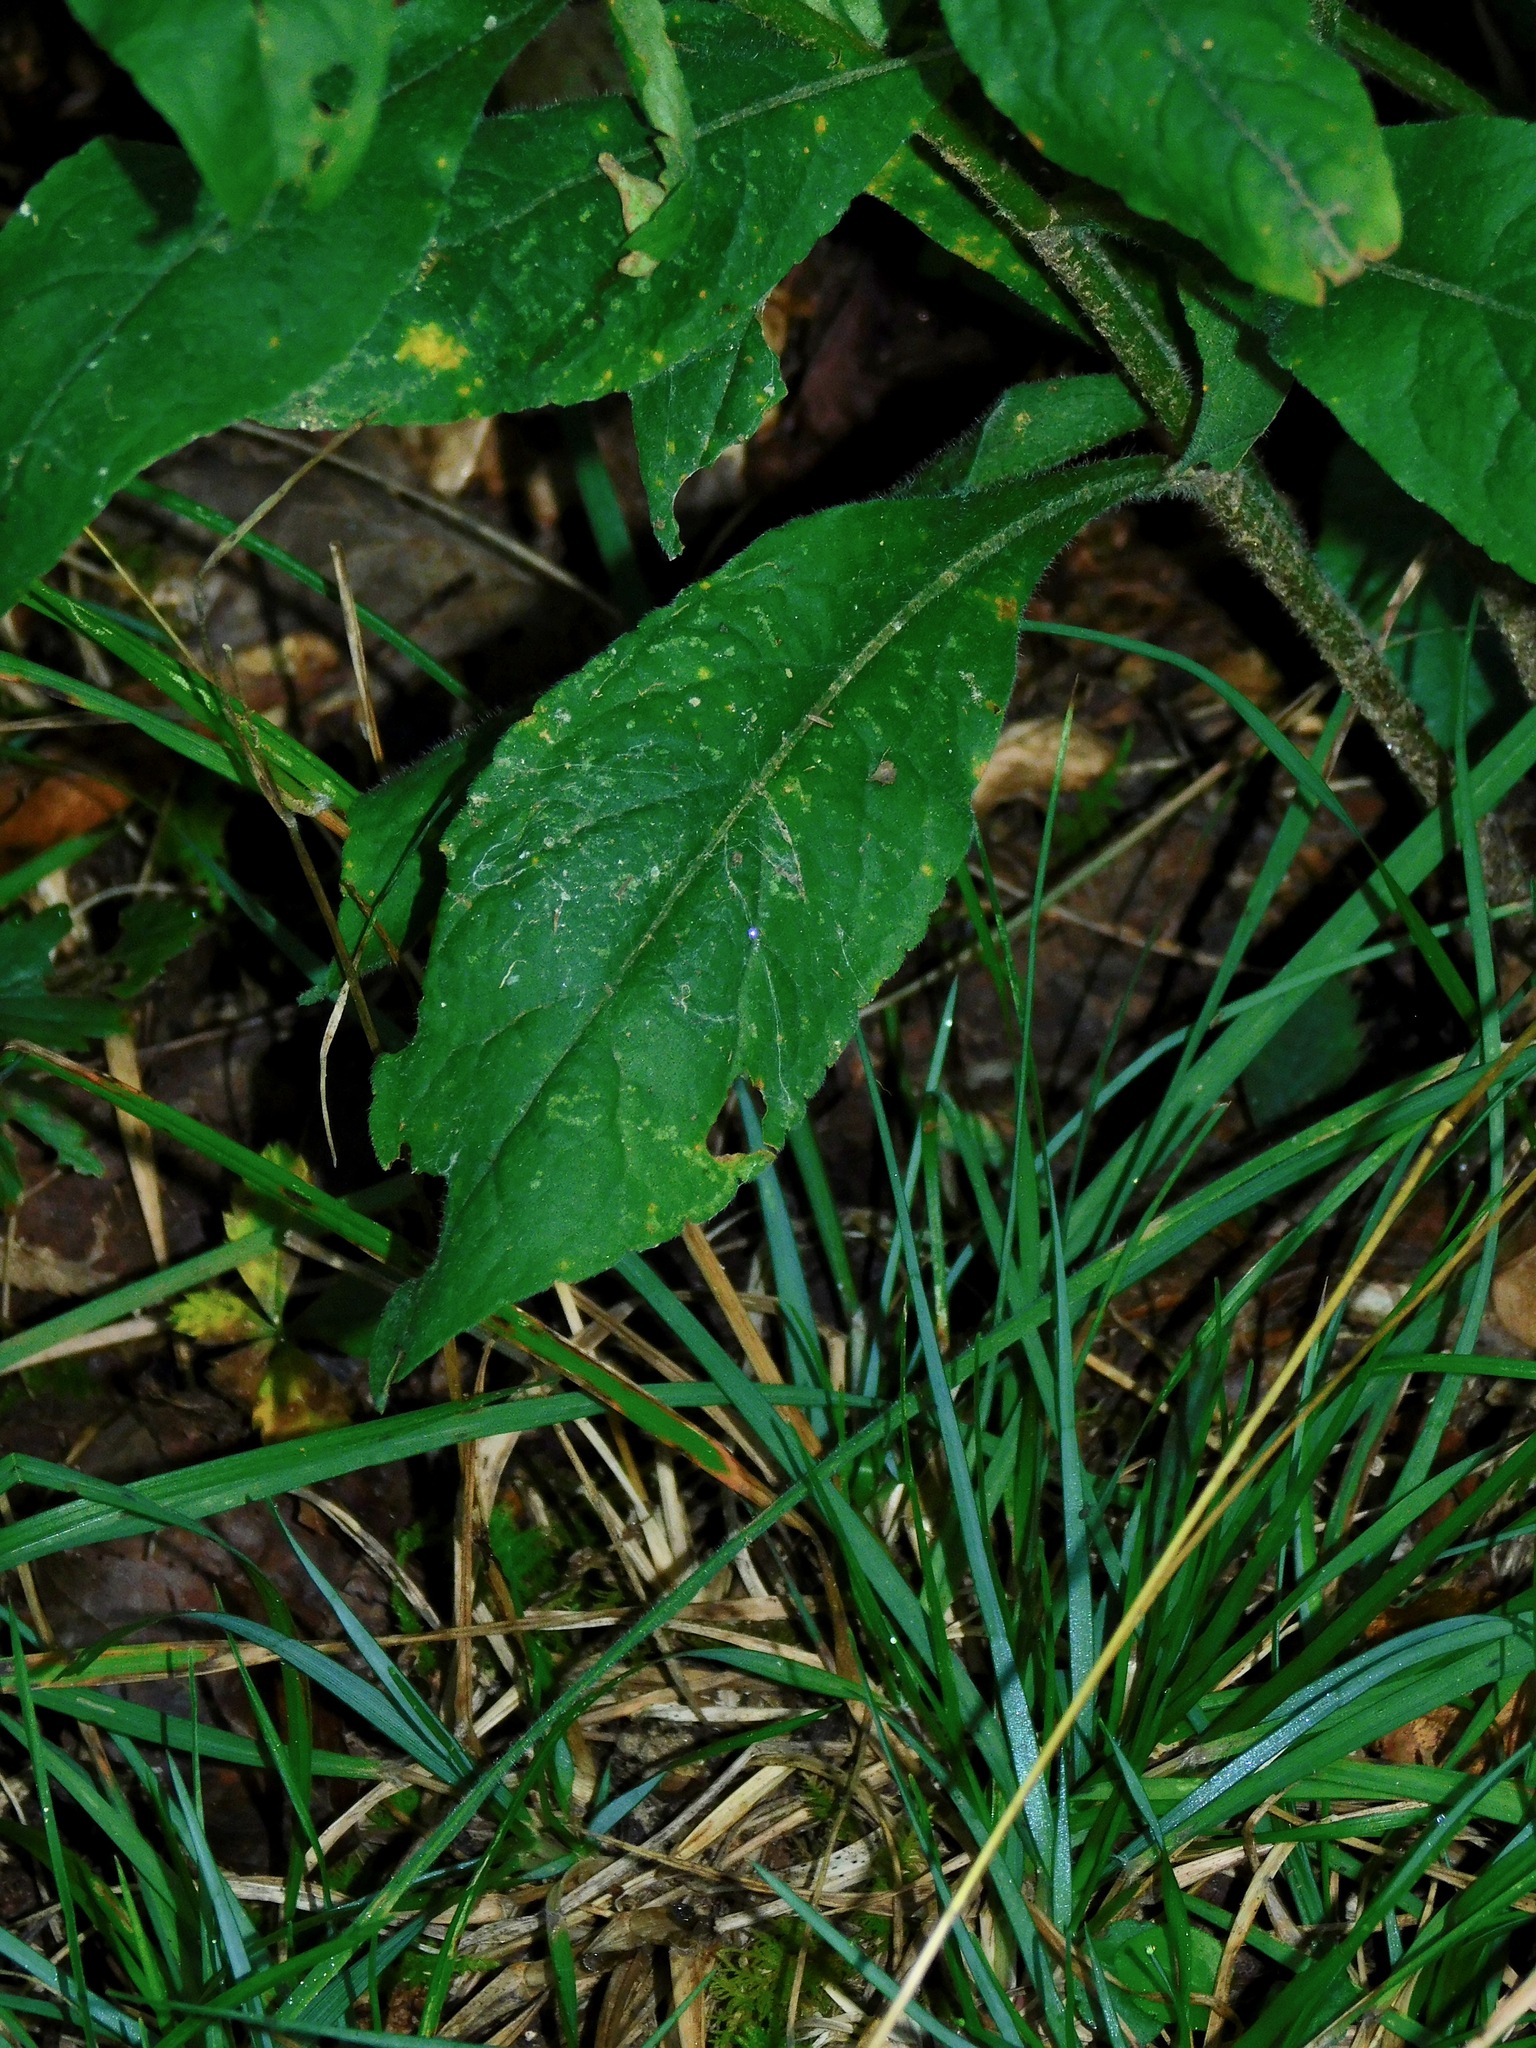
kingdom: Plantae
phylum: Tracheophyta
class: Magnoliopsida
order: Asterales
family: Asteraceae
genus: Solidago
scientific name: Solidago bicolor
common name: Silverrod
